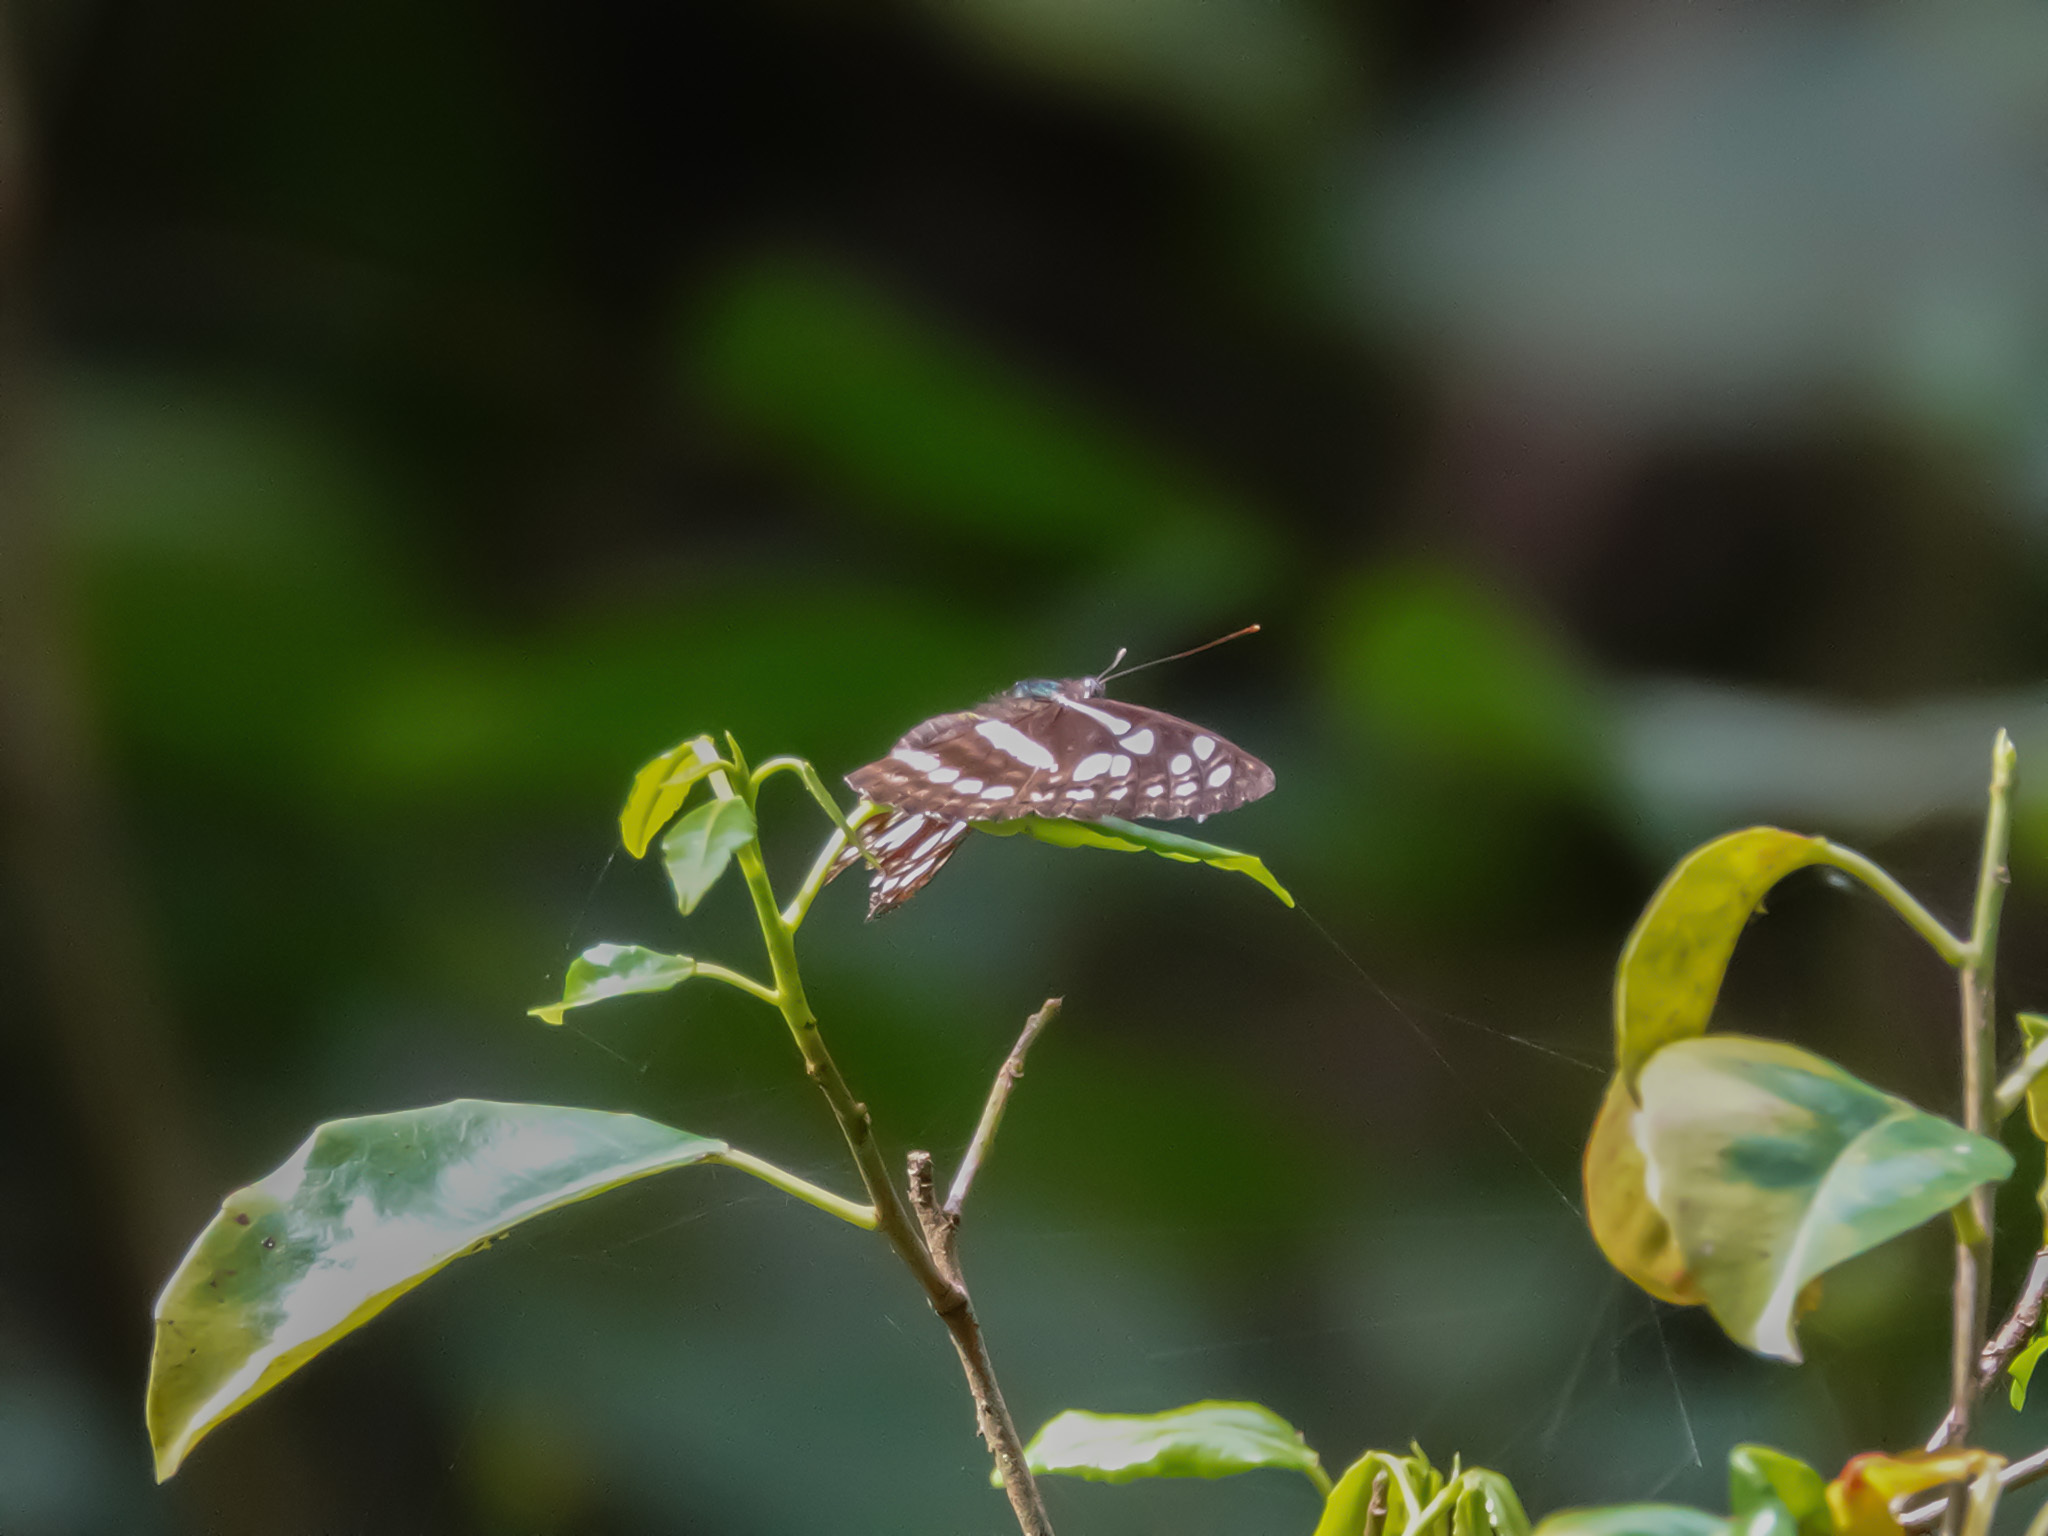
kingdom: Animalia
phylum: Arthropoda
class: Insecta
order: Lepidoptera
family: Nymphalidae
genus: Phaedyma
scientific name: Phaedyma columella
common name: Short banded sailer
